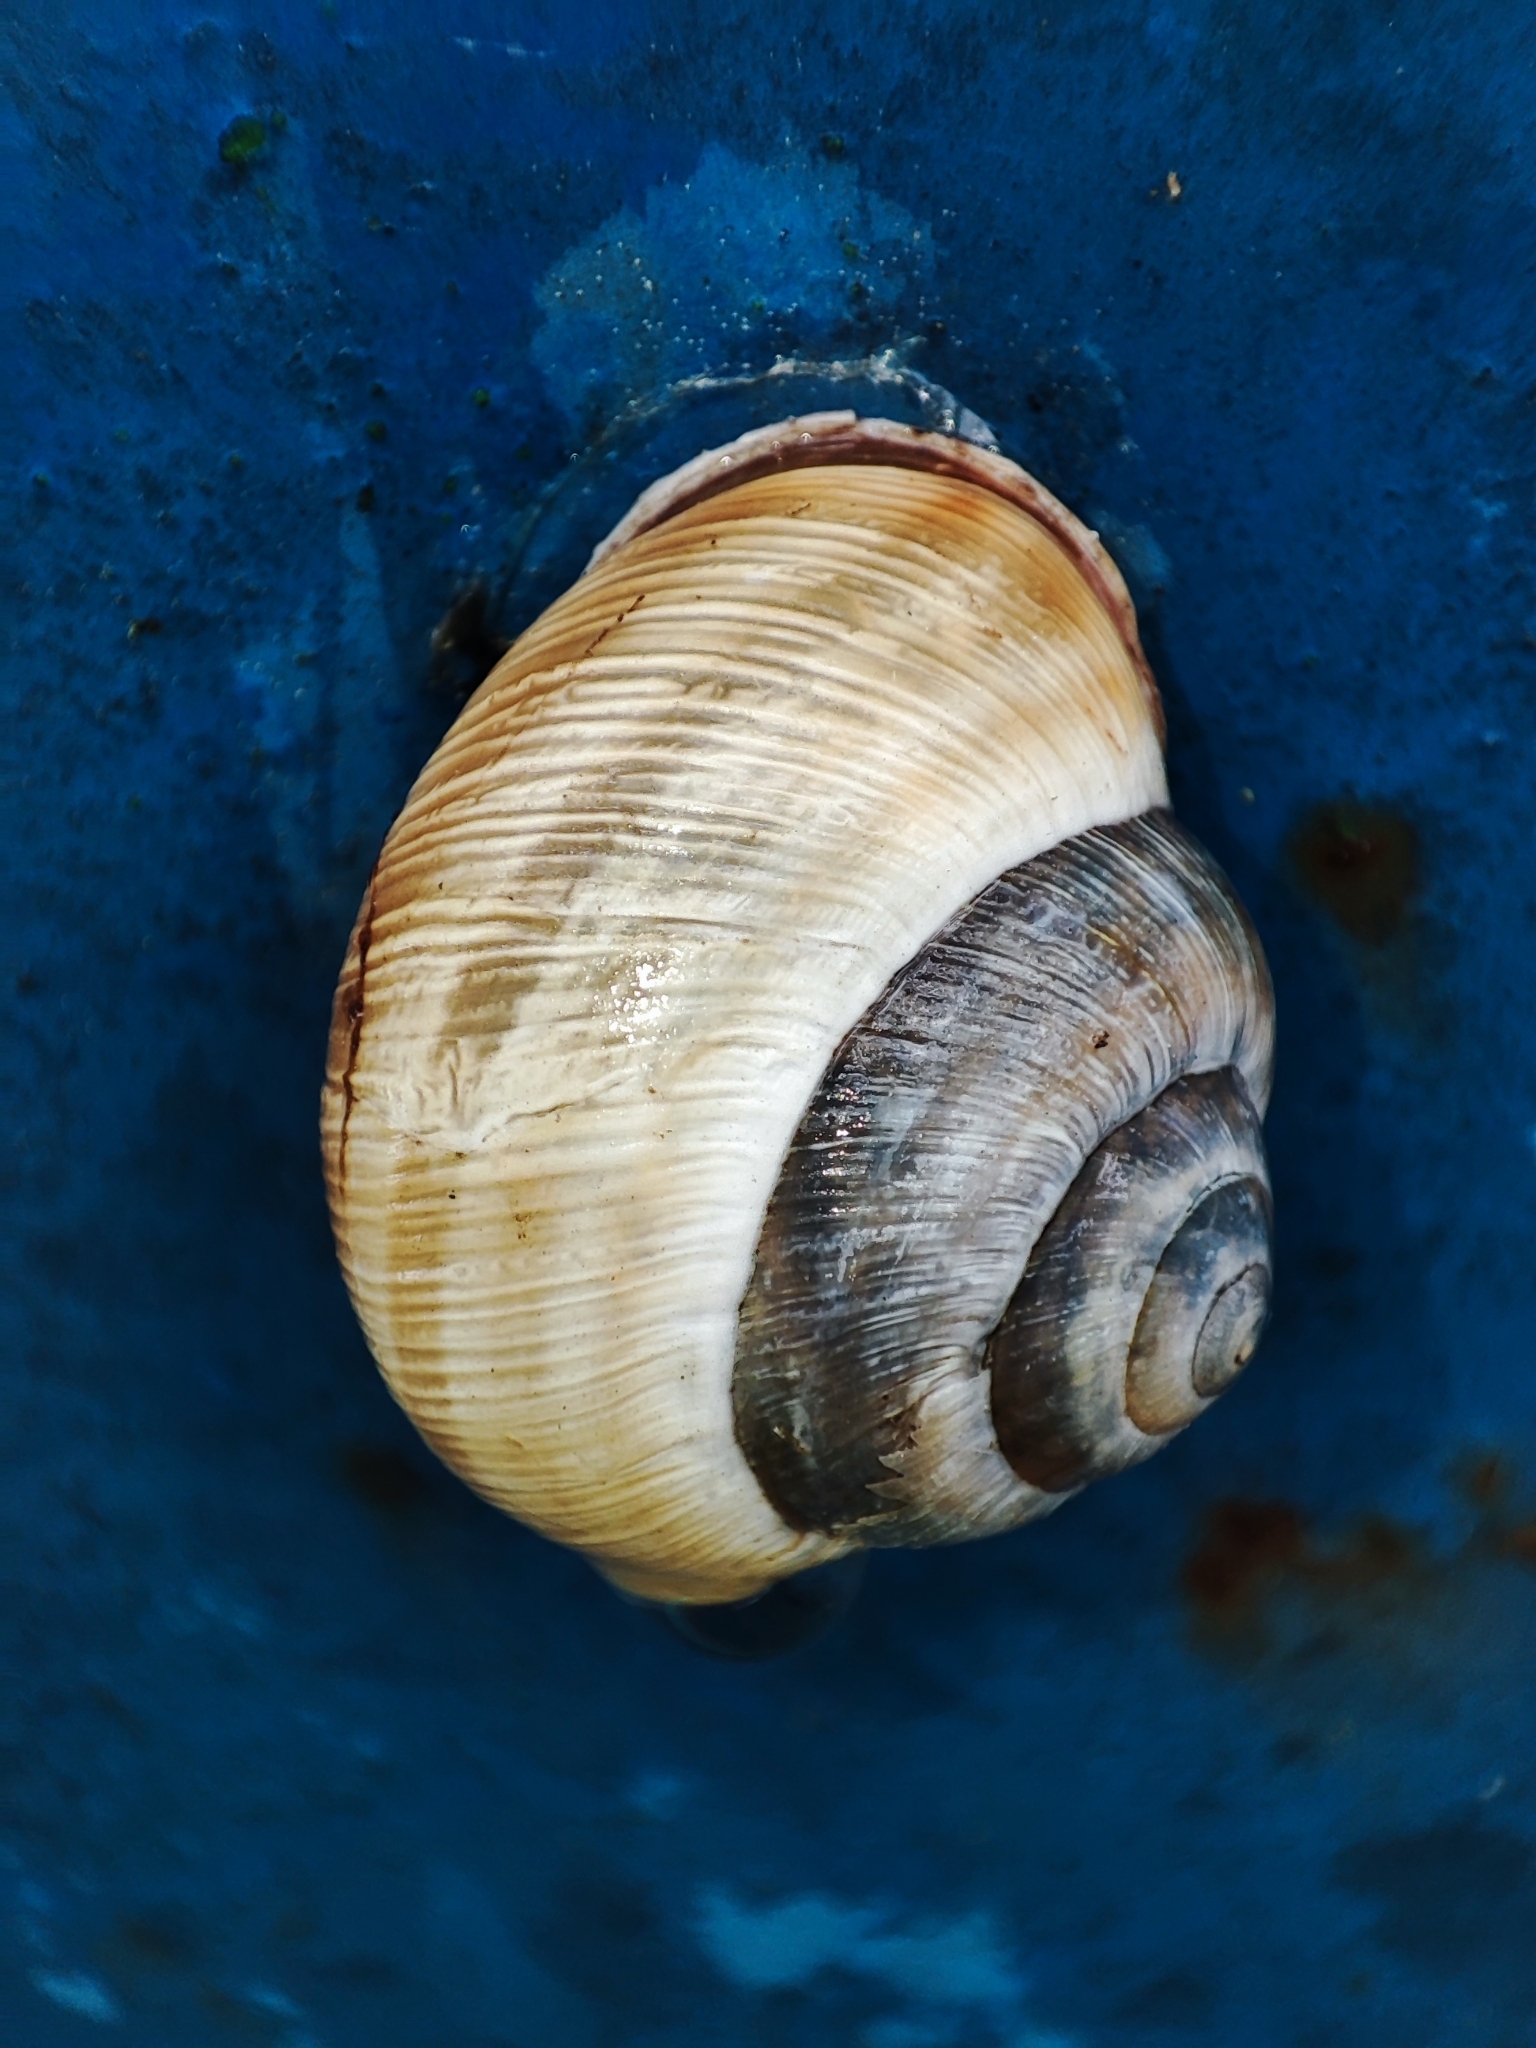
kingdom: Animalia
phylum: Mollusca
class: Gastropoda
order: Stylommatophora
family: Helicidae
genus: Caucasotachea
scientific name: Caucasotachea vindobonensis
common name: European helicid land snail
